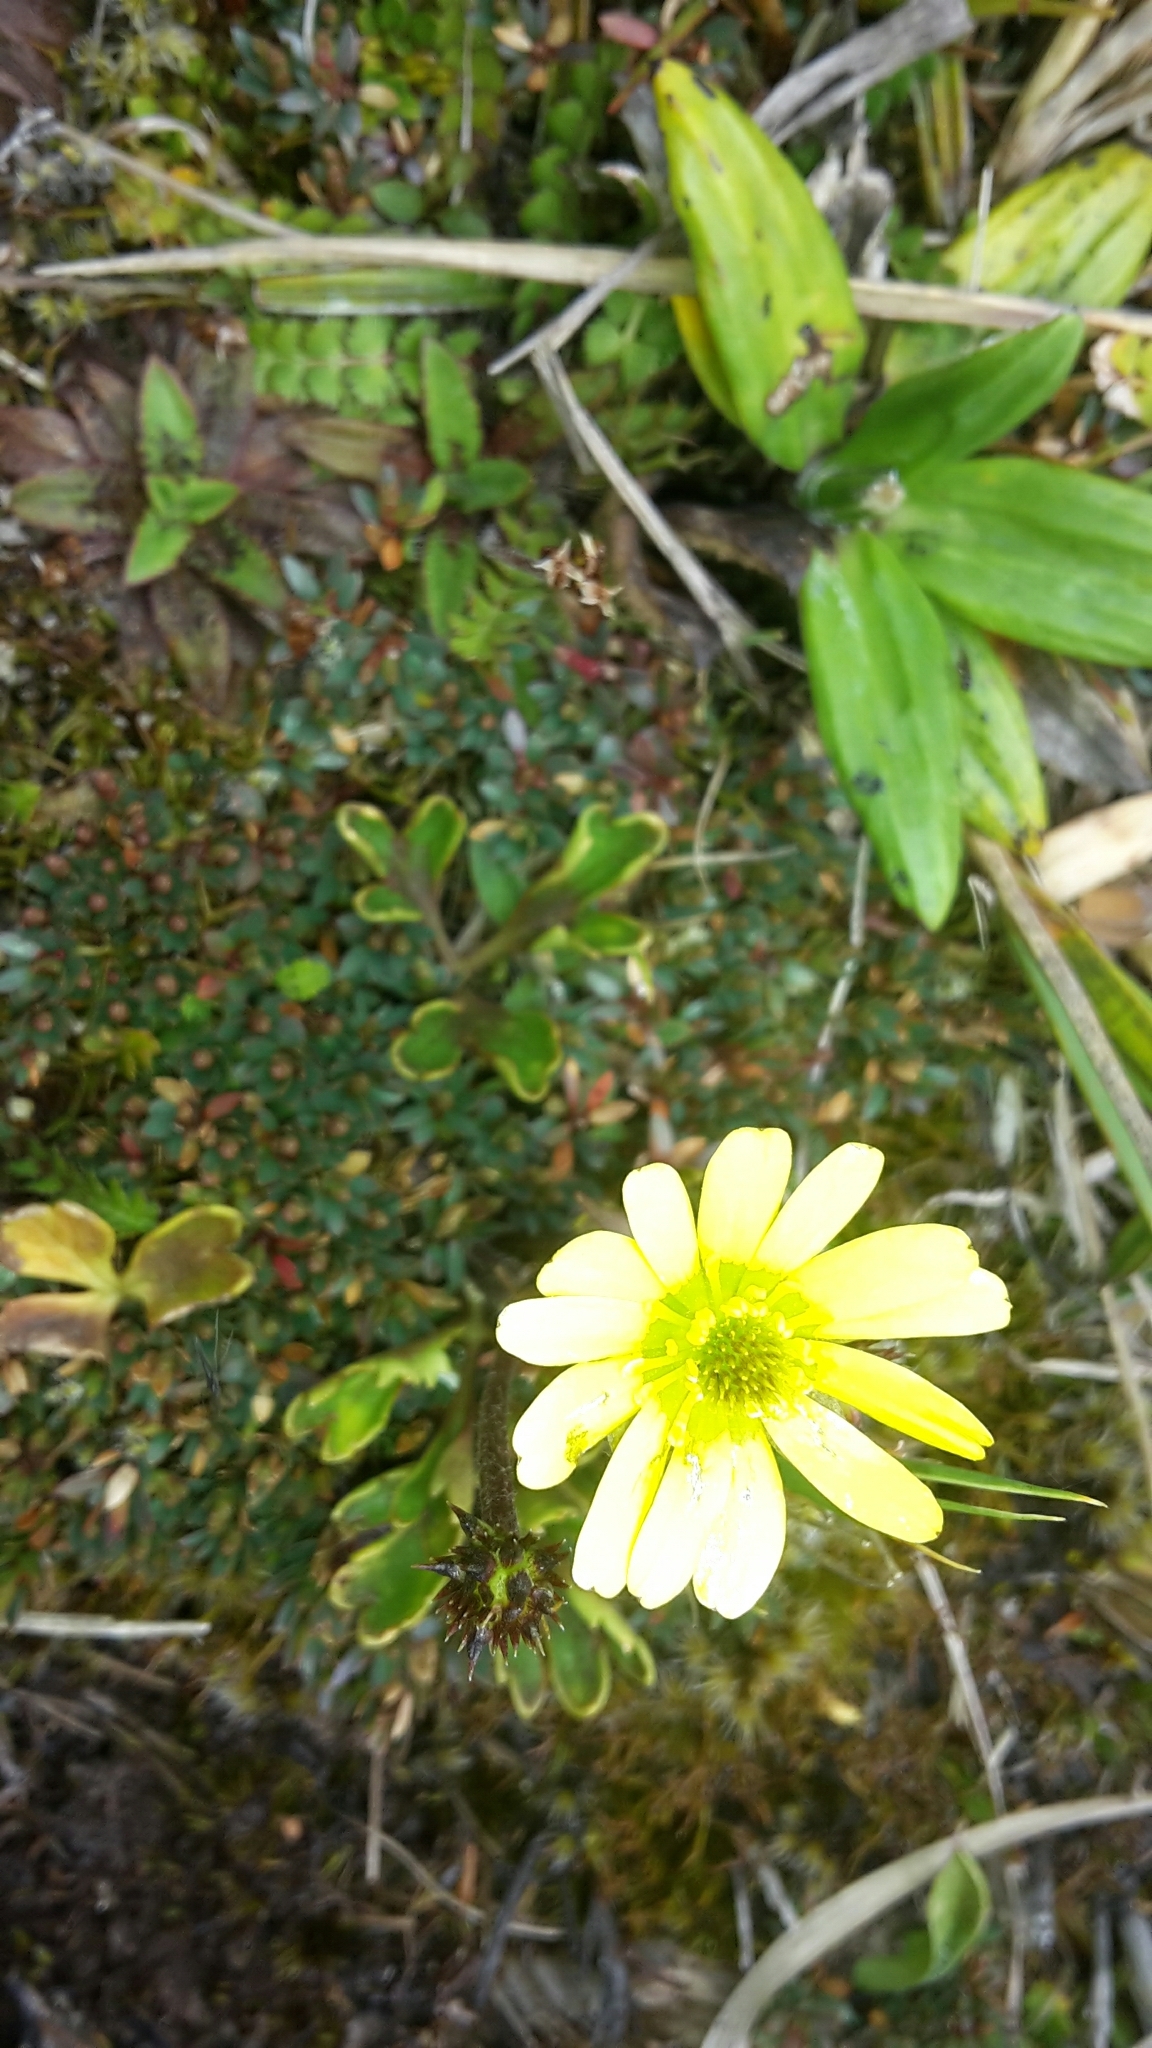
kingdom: Plantae
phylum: Tracheophyta
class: Magnoliopsida
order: Ranunculales
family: Ranunculaceae
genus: Ranunculus
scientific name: Ranunculus verticillatus
